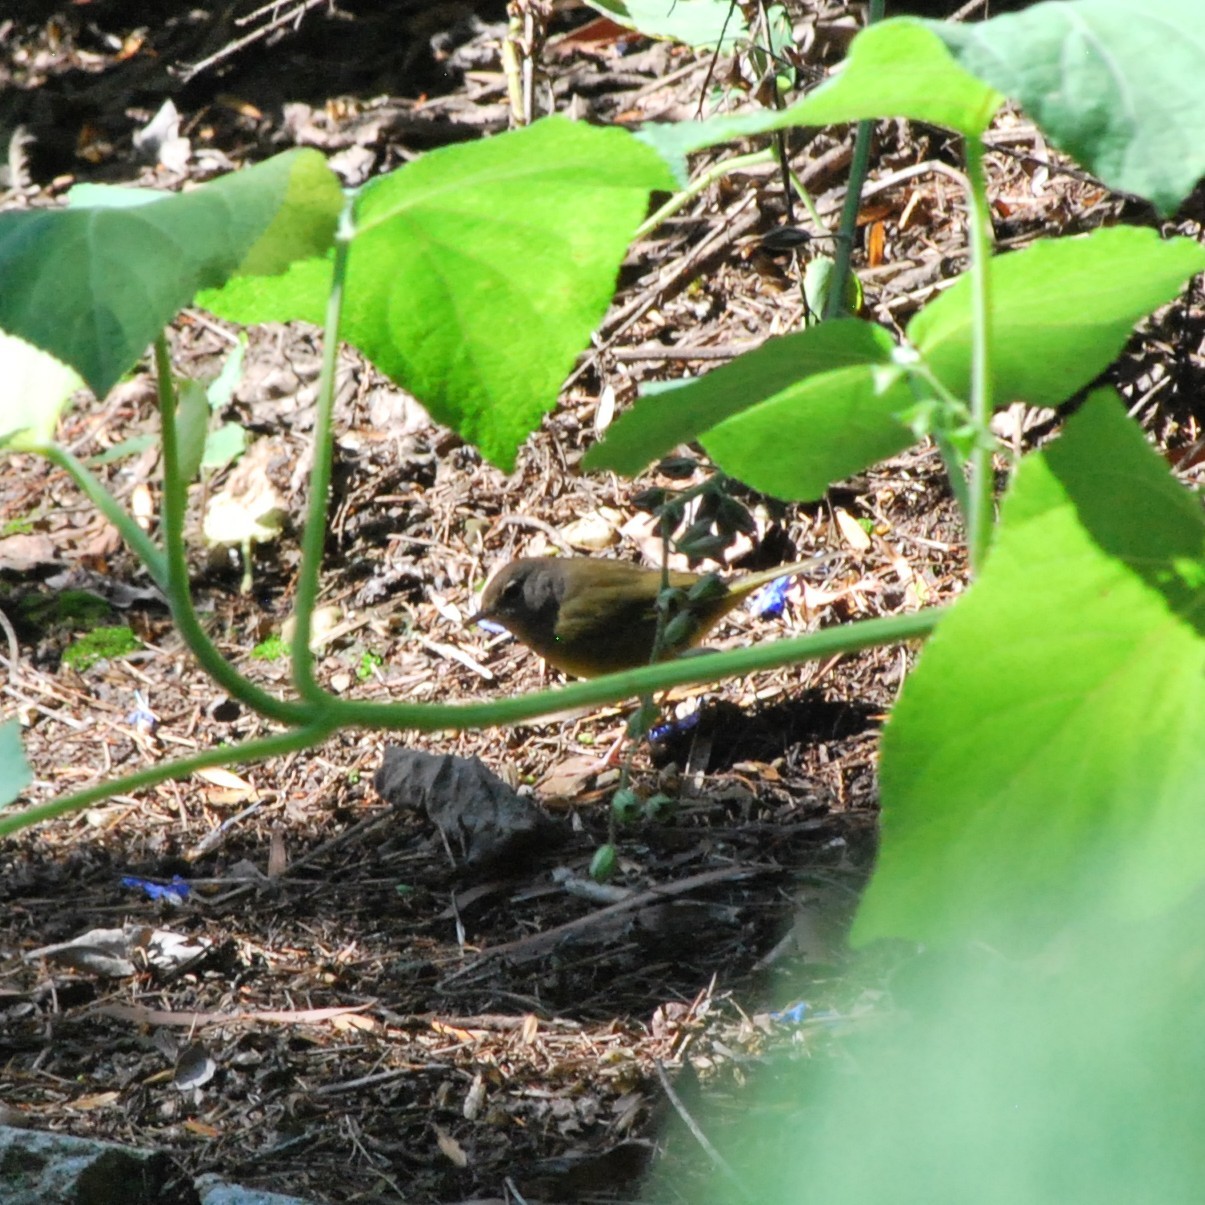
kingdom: Animalia
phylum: Chordata
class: Aves
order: Passeriformes
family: Parulidae
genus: Geothlypis
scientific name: Geothlypis tolmiei
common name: Macgillivray's warbler
